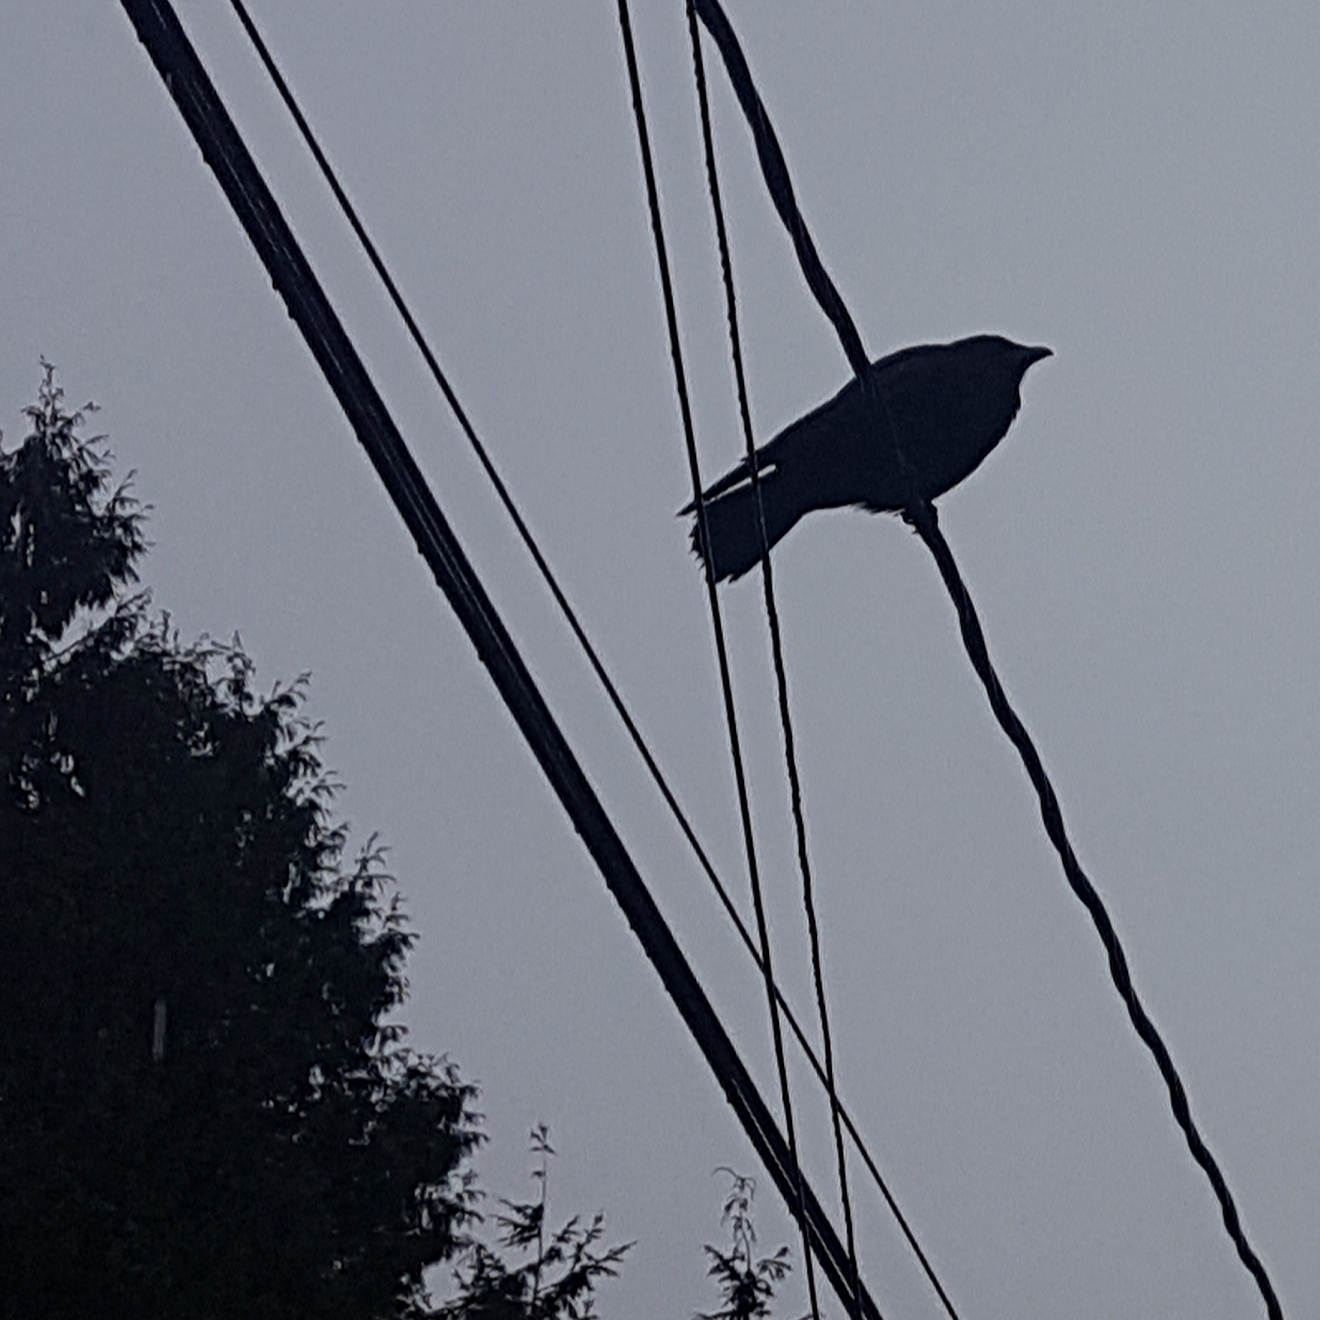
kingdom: Animalia
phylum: Chordata
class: Aves
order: Passeriformes
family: Corvidae
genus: Corvus
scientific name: Corvus brachyrhynchos
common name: American crow
